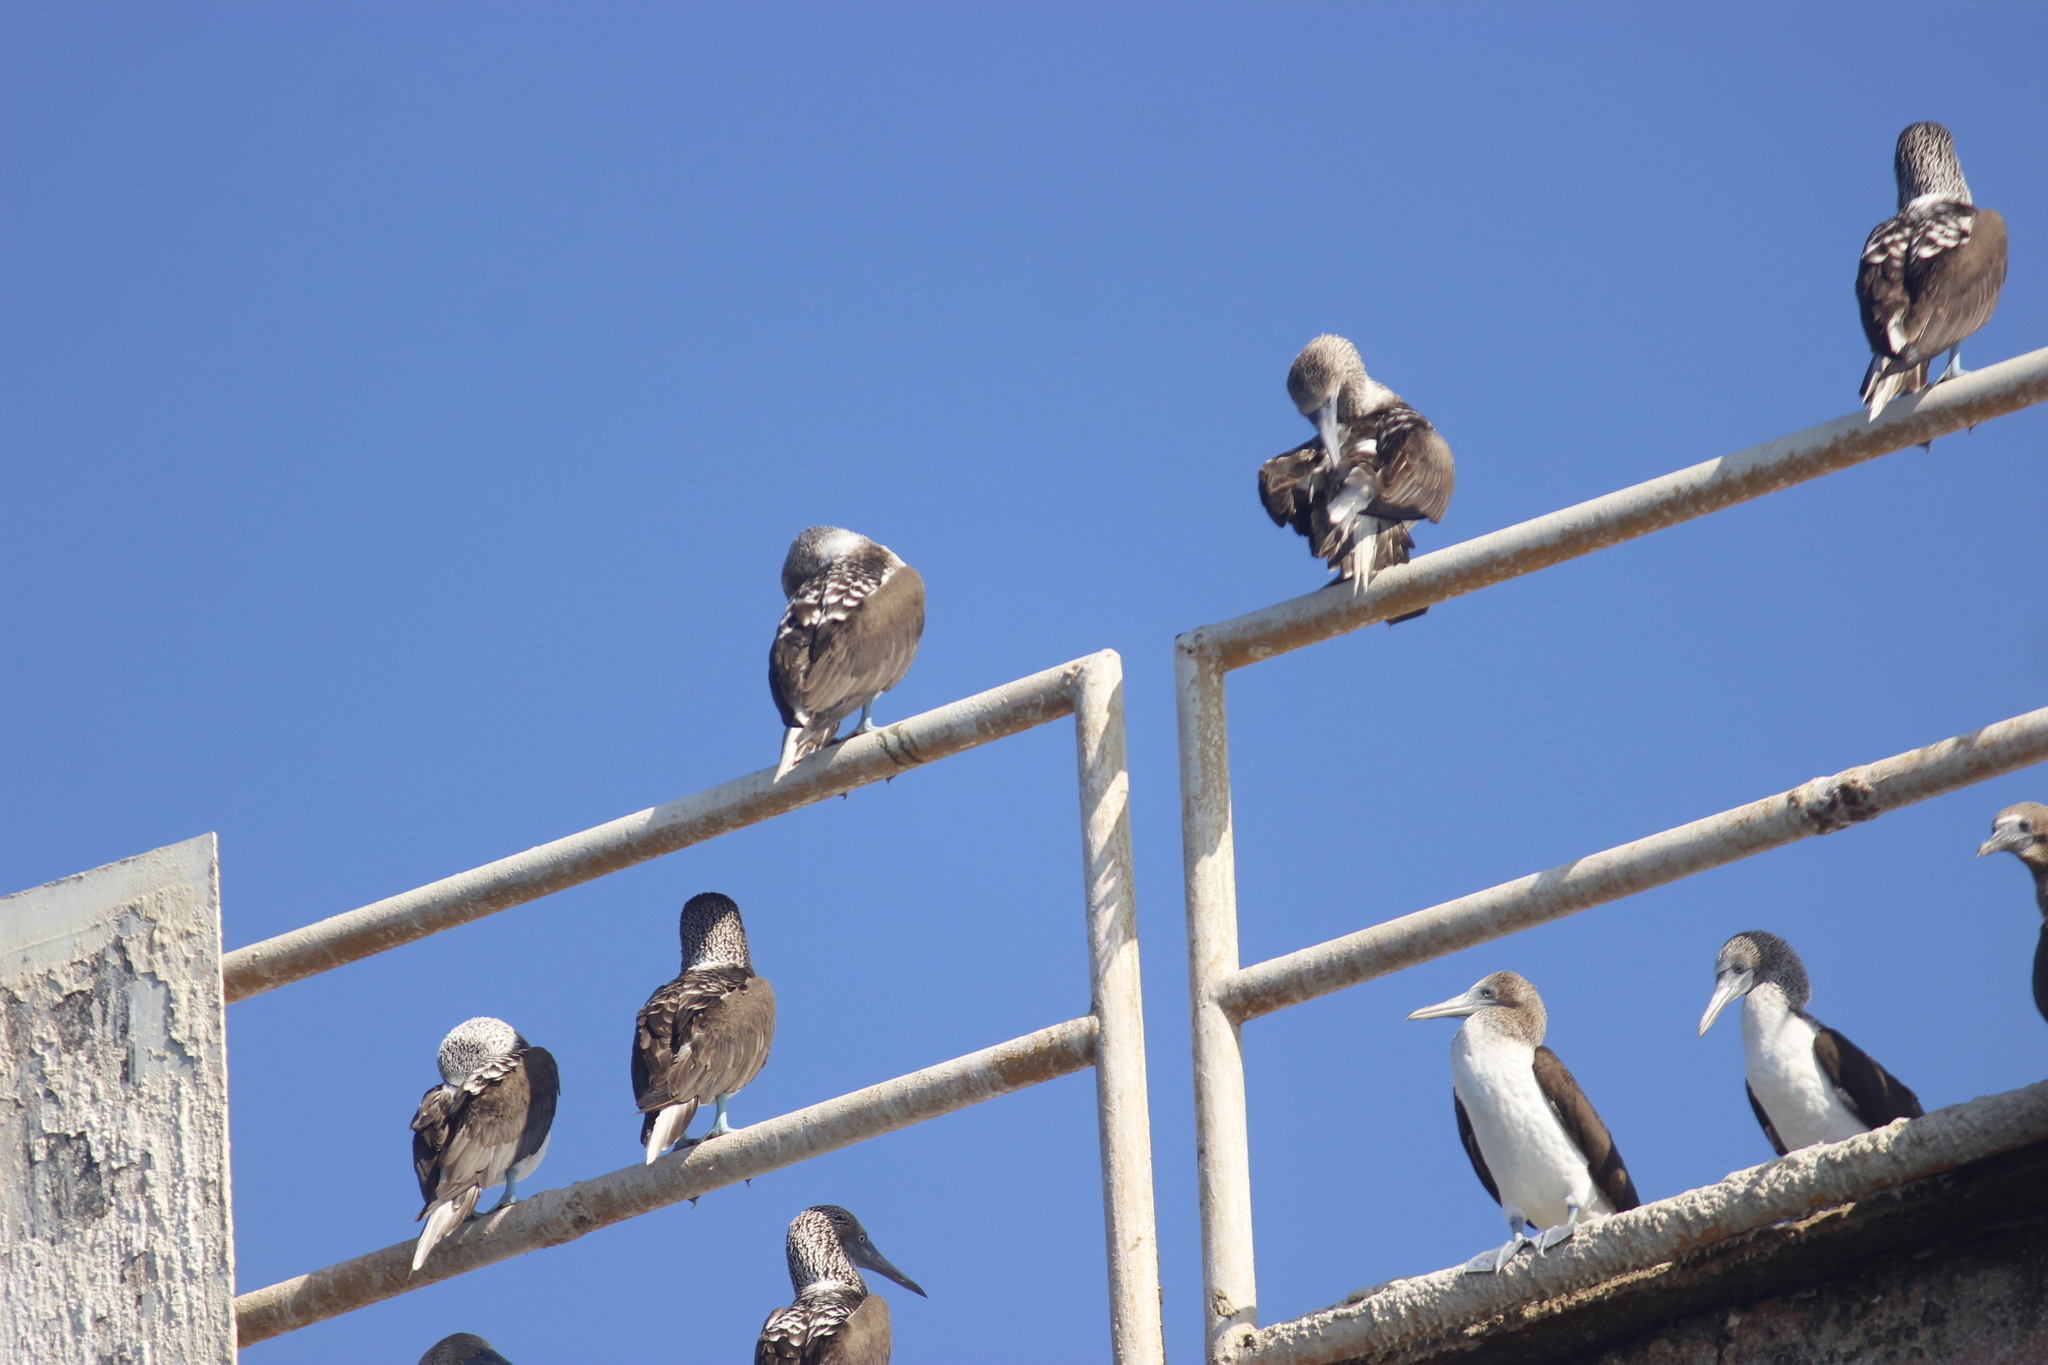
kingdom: Animalia
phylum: Chordata
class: Aves
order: Suliformes
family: Sulidae
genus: Sula
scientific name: Sula nebouxii
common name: Blue-footed booby
